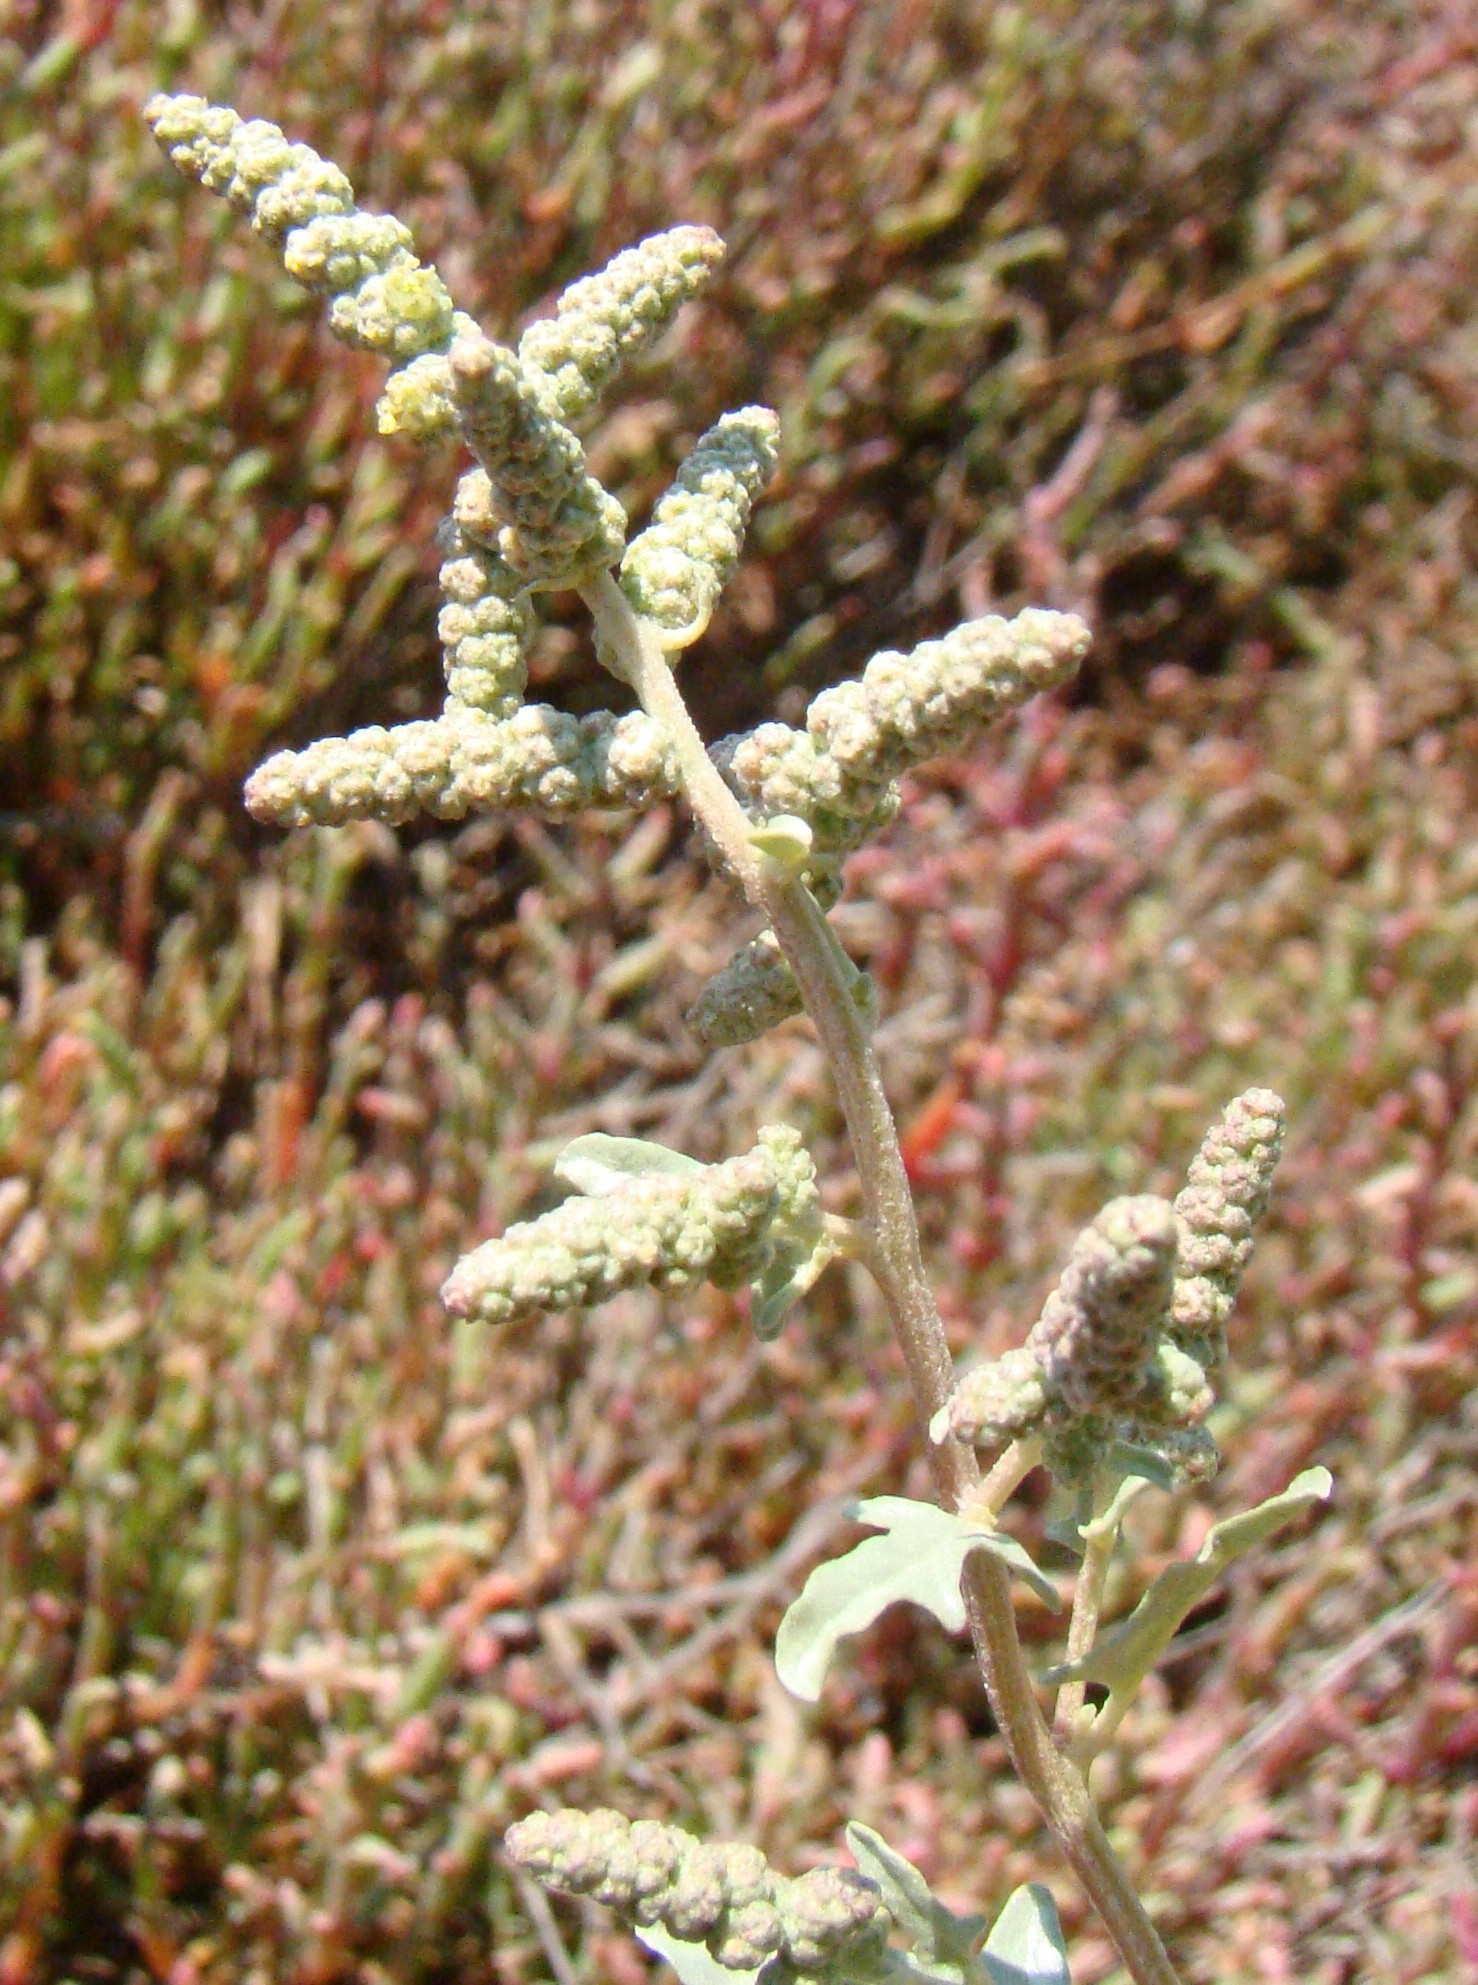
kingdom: Plantae
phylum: Tracheophyta
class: Magnoliopsida
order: Caryophyllales
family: Amaranthaceae
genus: Atriplex
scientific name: Atriplex tatarica
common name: Tatarian orache
